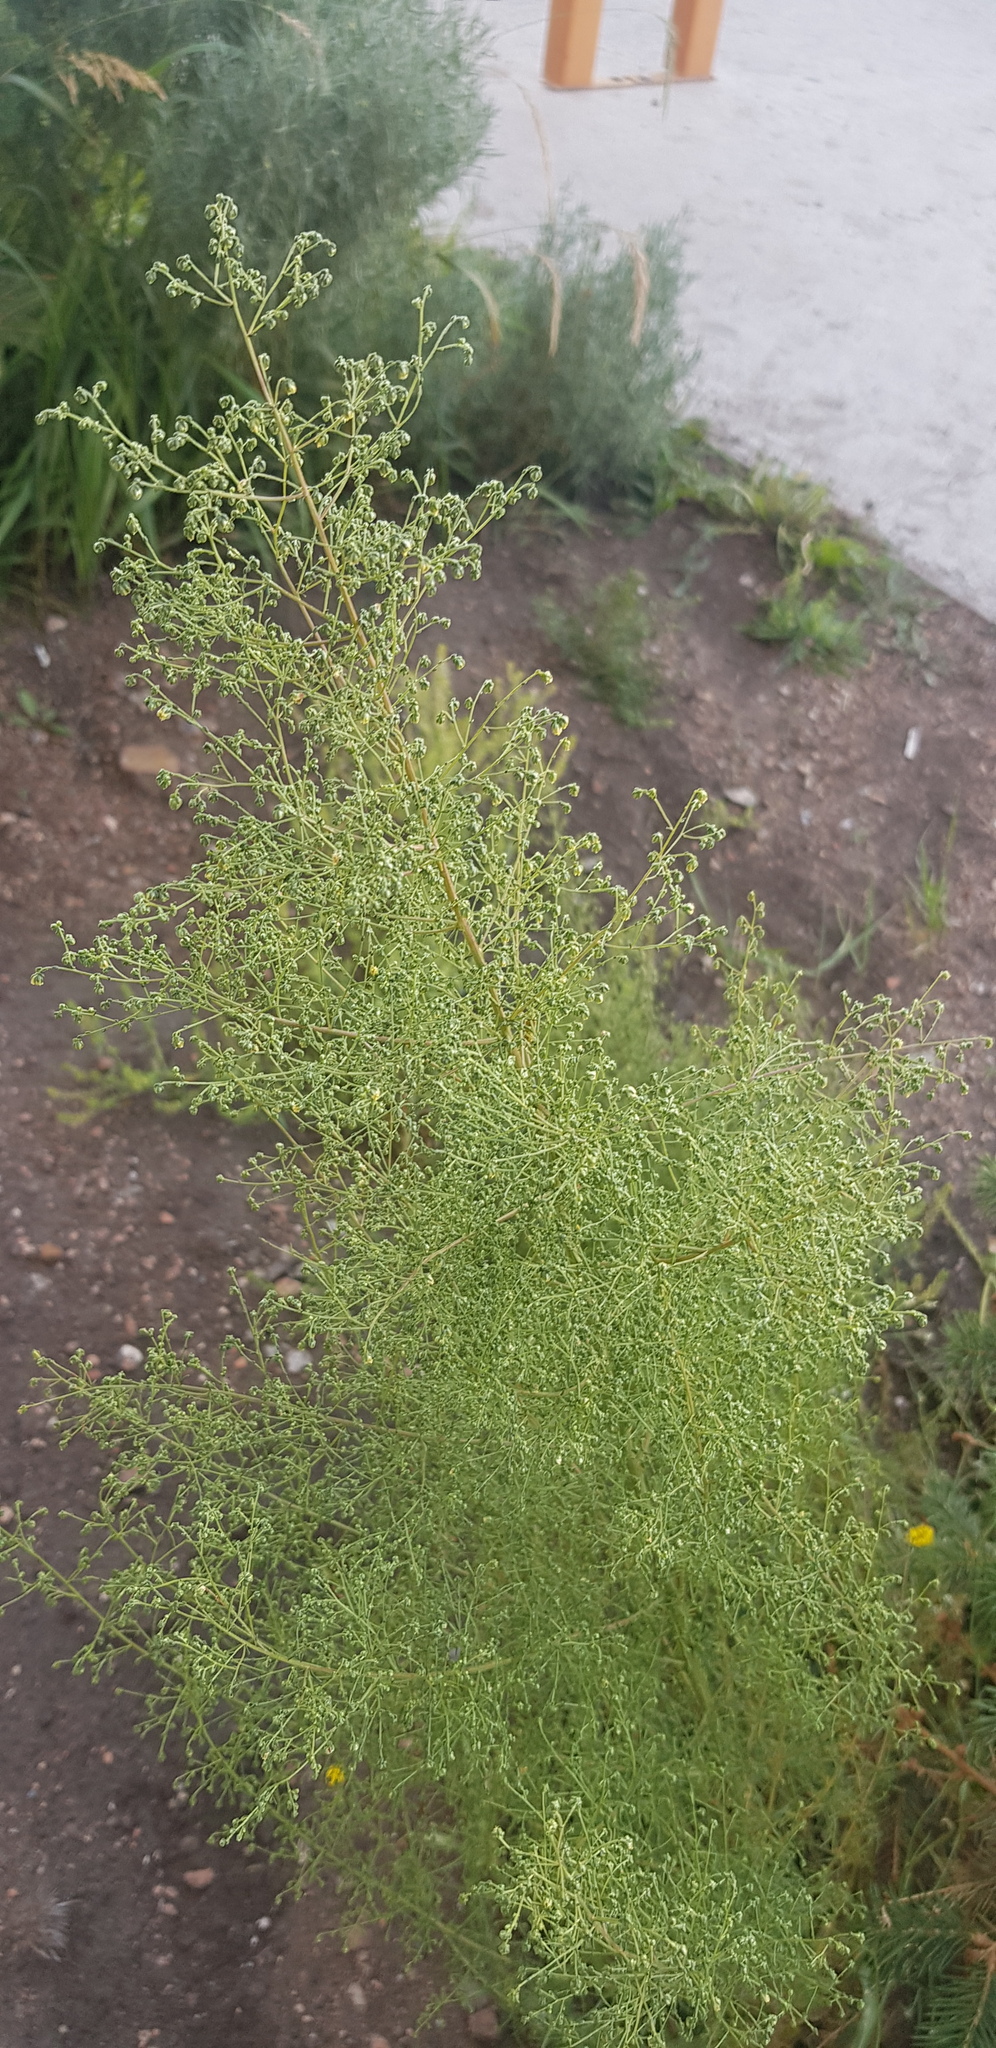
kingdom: Plantae
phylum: Tracheophyta
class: Magnoliopsida
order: Asterales
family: Asteraceae
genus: Artemisia
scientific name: Artemisia scoparia
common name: Redstem wormwood
